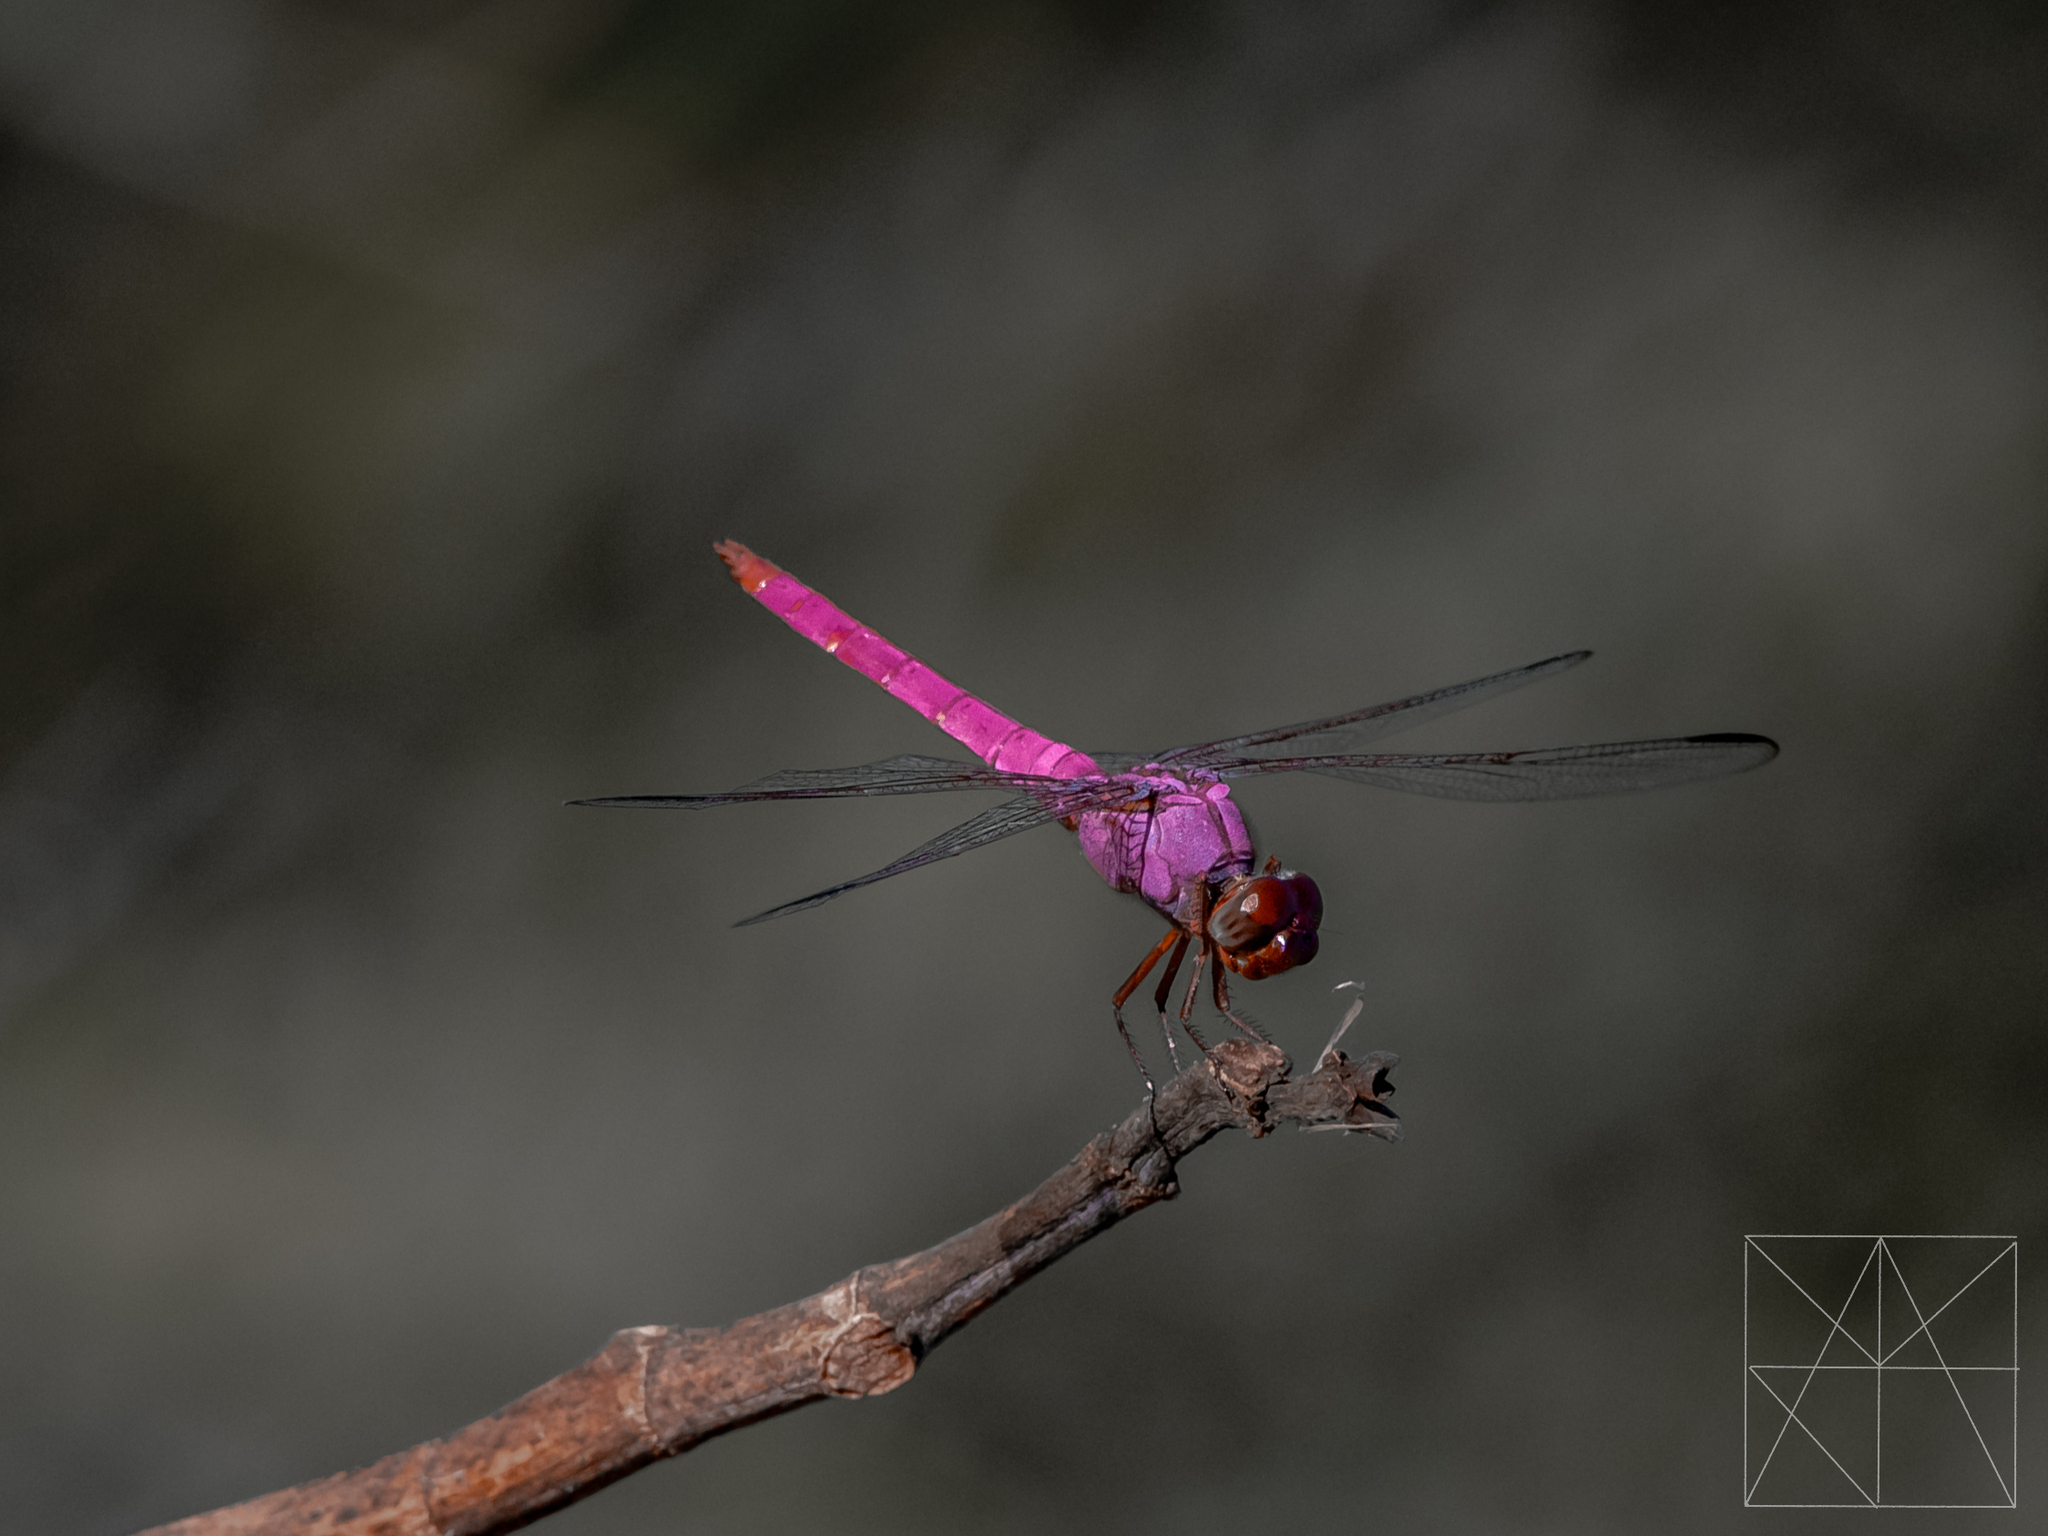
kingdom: Animalia
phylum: Arthropoda
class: Insecta
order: Odonata
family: Libellulidae
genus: Orthemis
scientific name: Orthemis ferruginea
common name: Roseate skimmer
